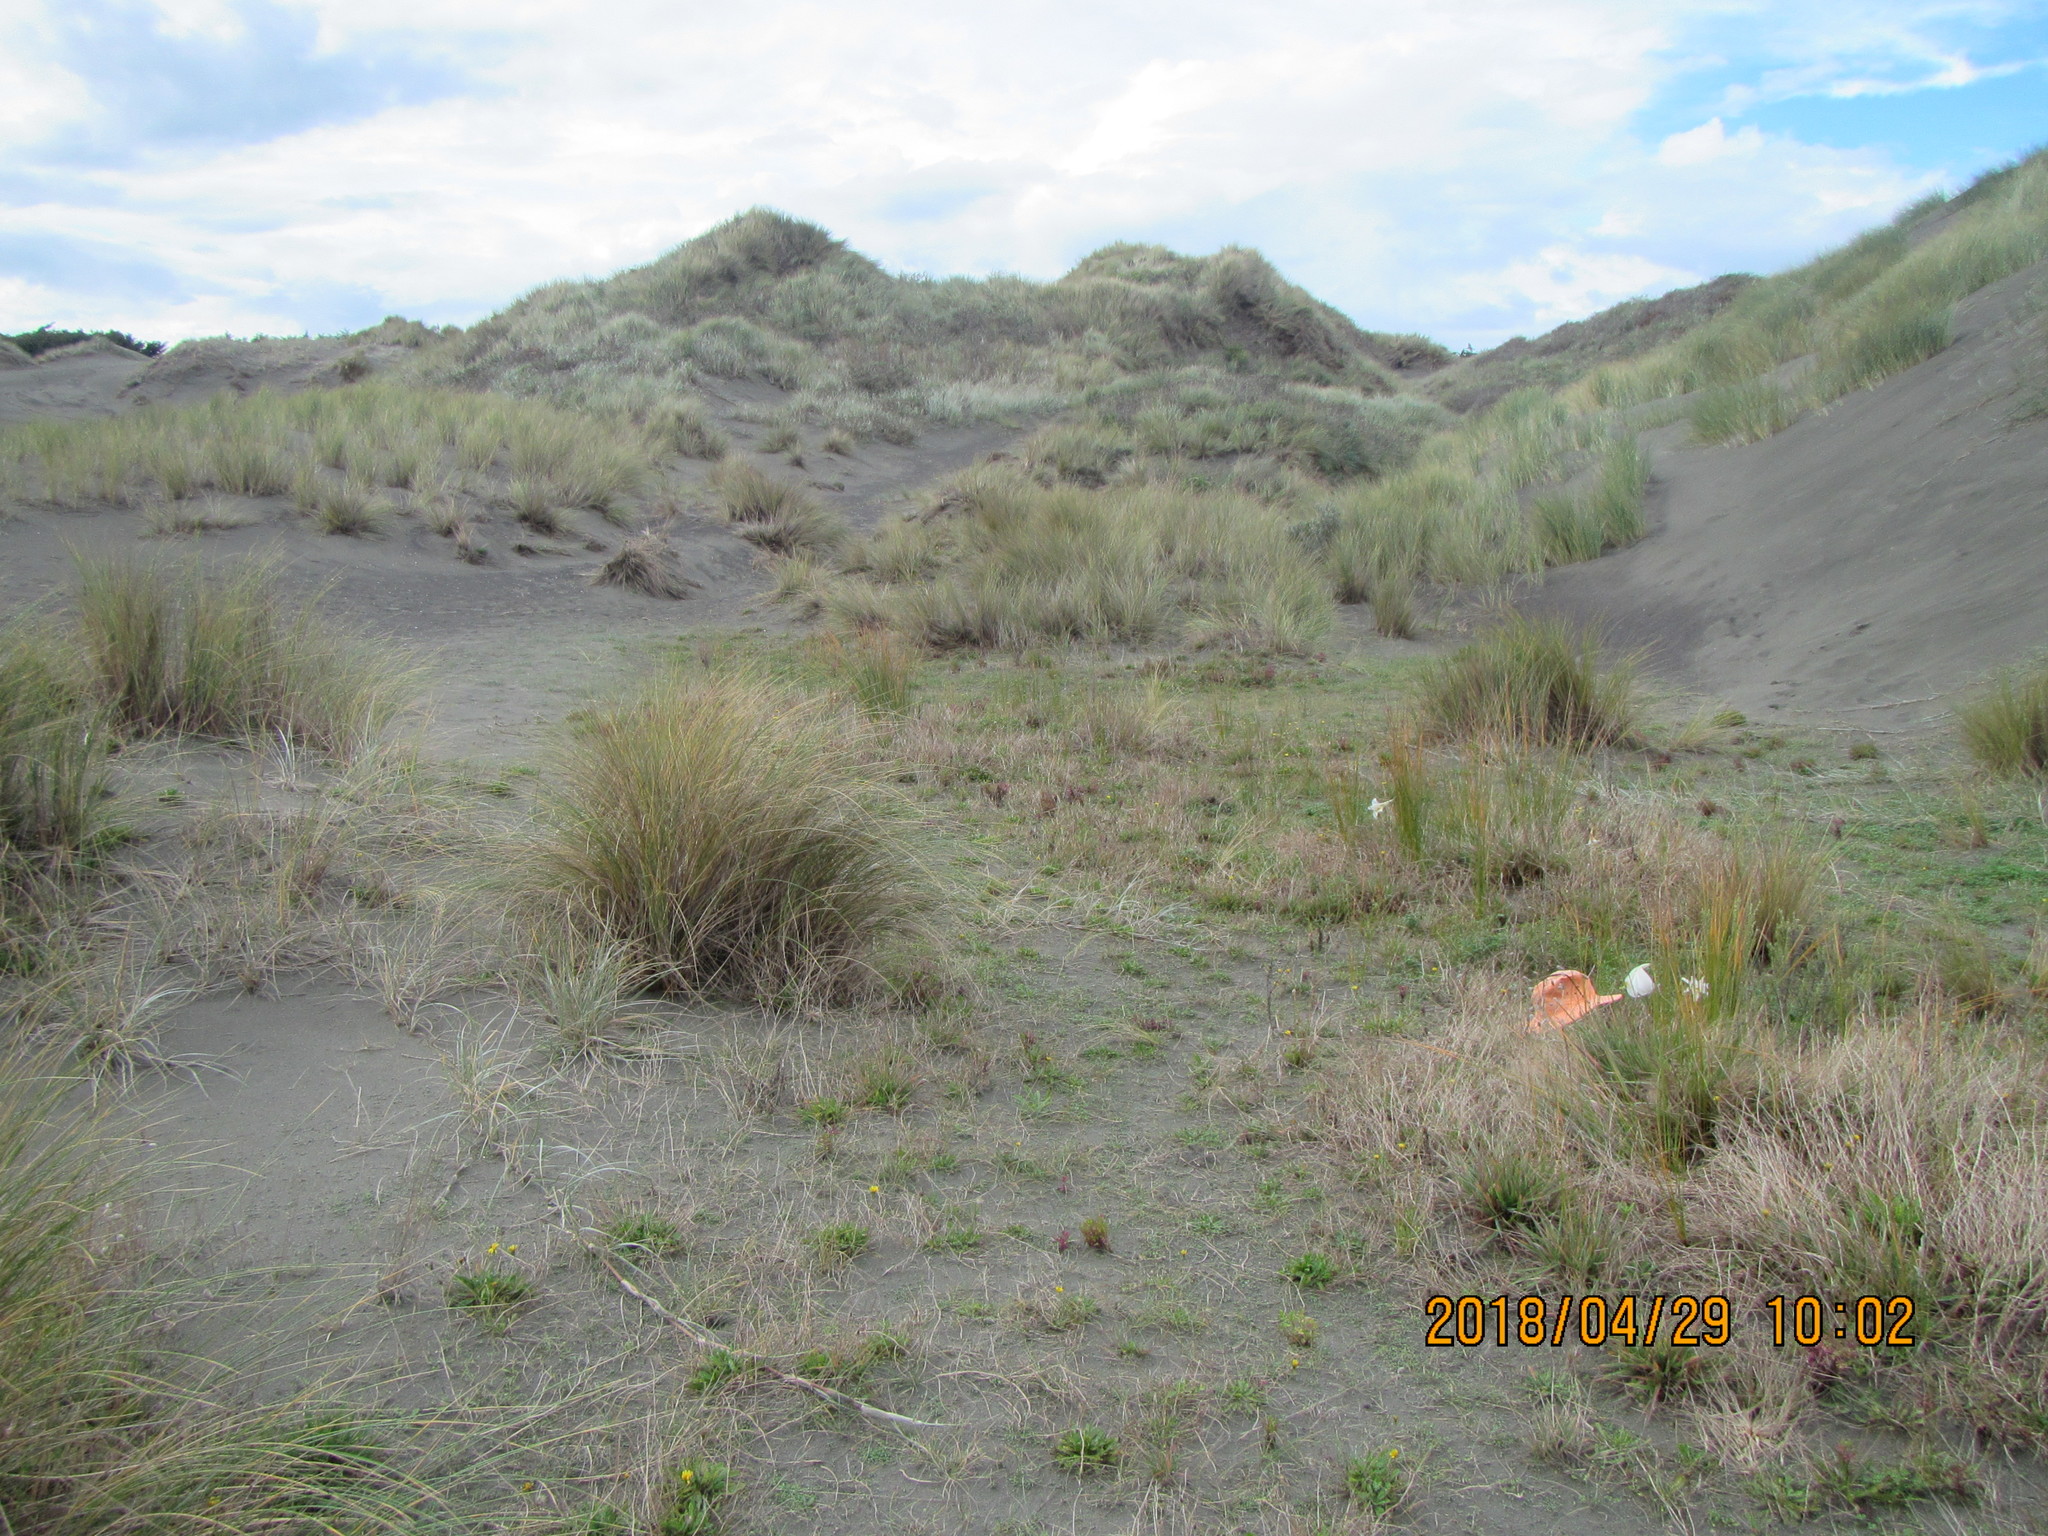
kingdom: Plantae
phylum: Tracheophyta
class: Liliopsida
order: Liliales
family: Liliaceae
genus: Lilium
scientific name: Lilium formosanum
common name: Formosa lily
